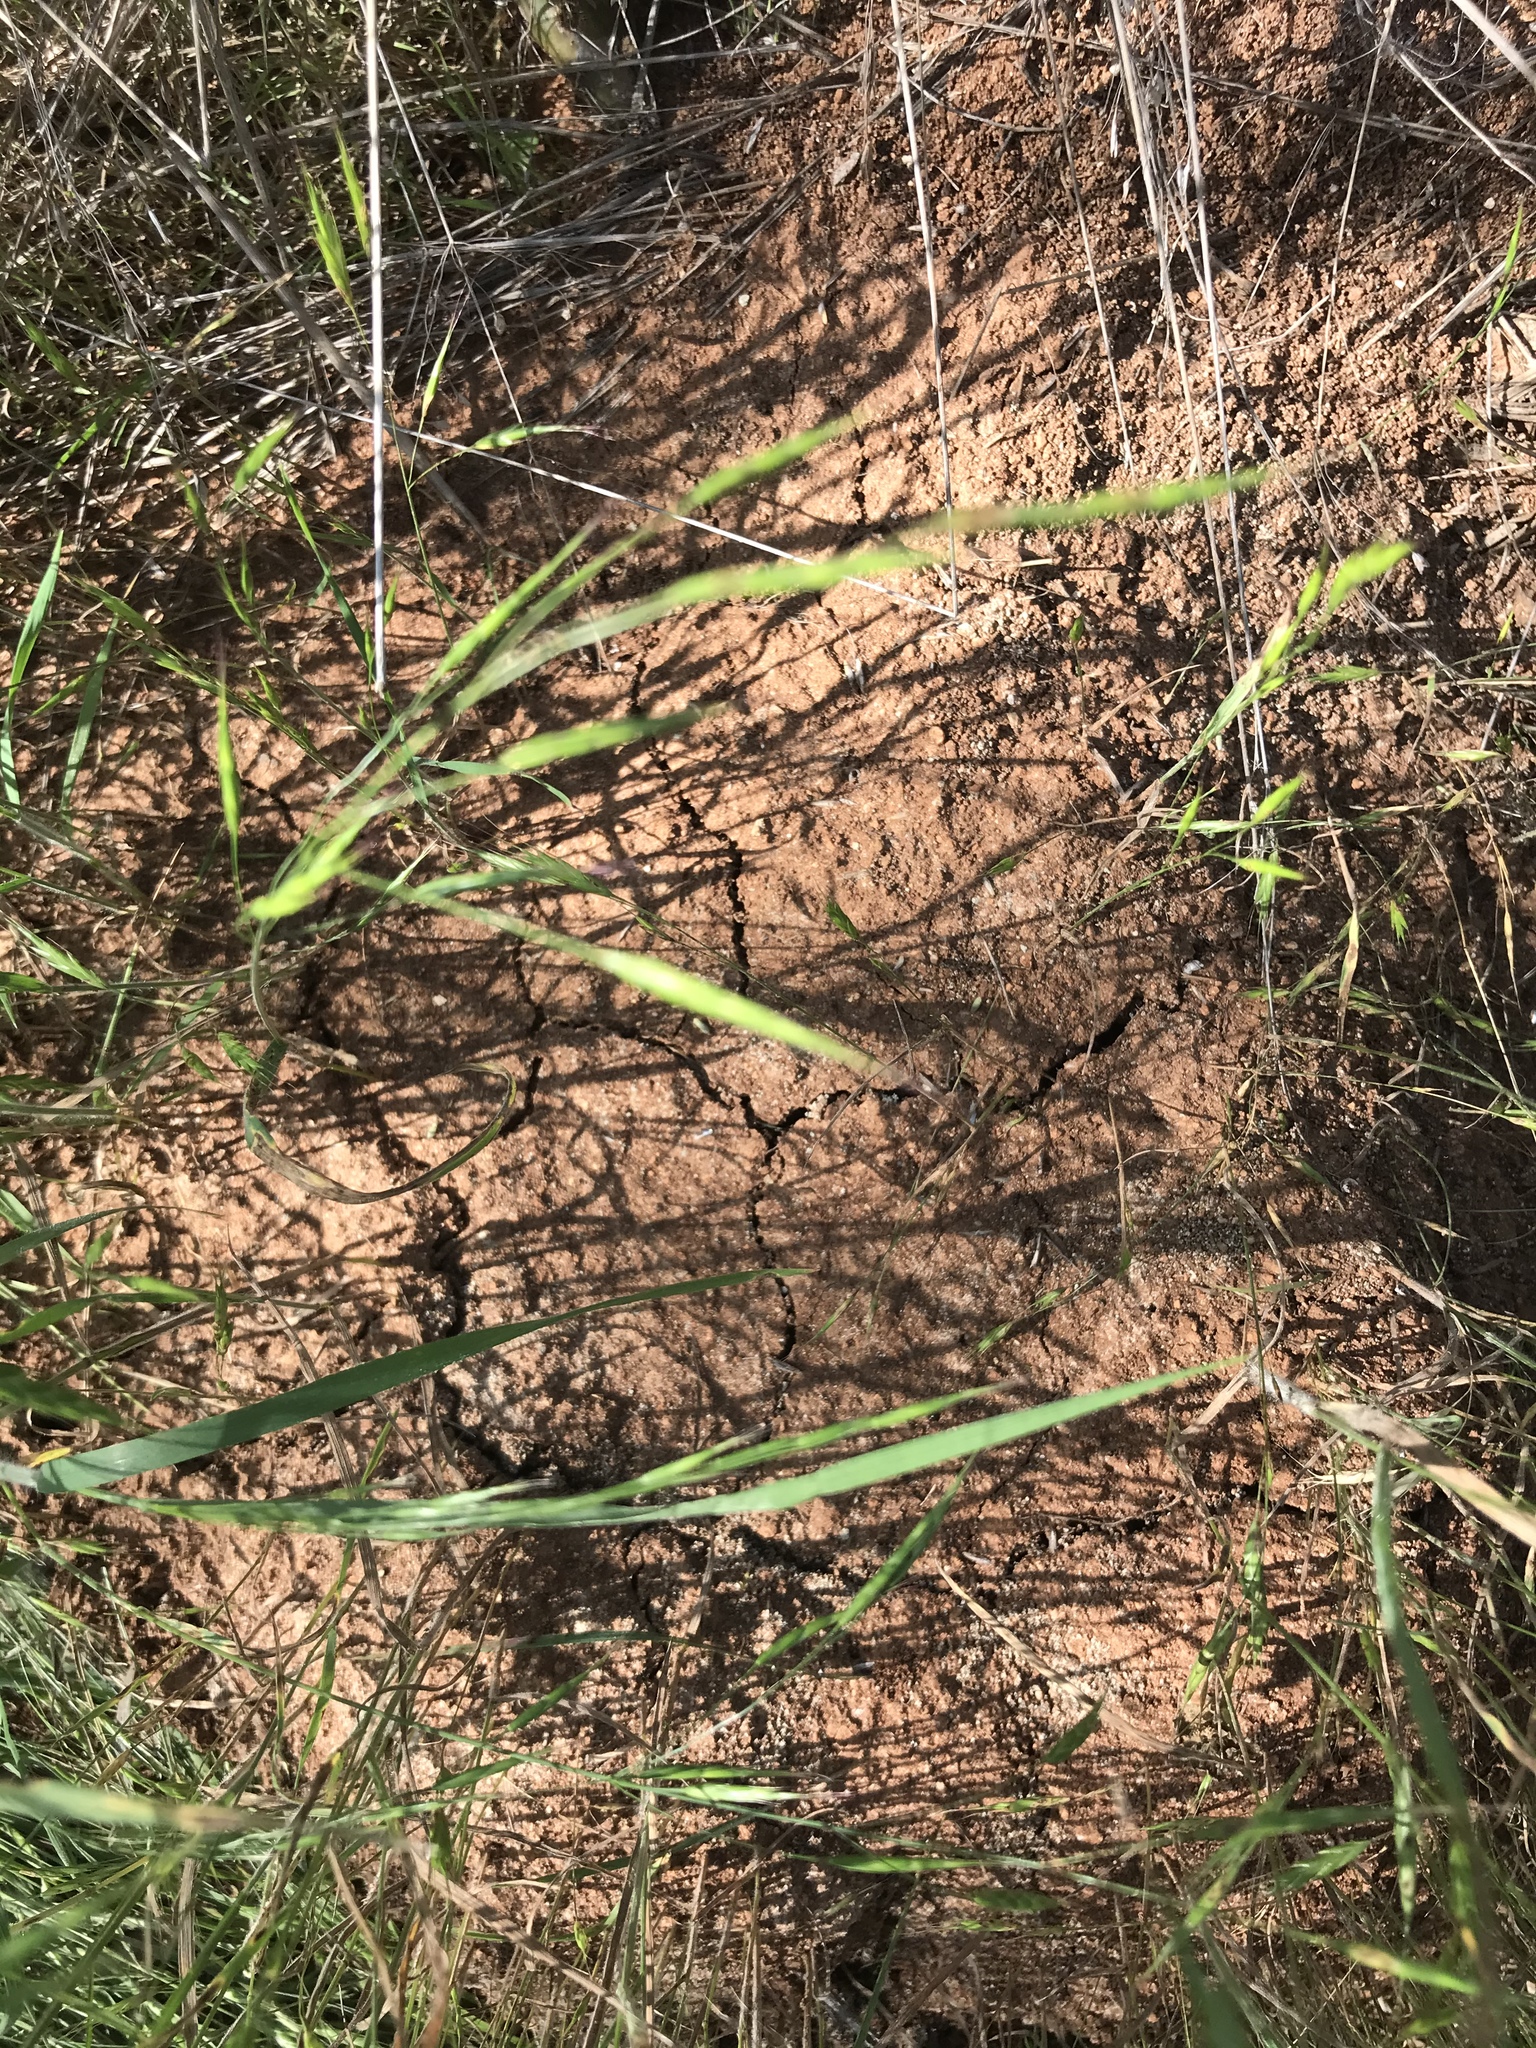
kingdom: Animalia
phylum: Arthropoda
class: Insecta
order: Hymenoptera
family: Formicidae
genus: Solenopsis
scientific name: Solenopsis invicta
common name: Red imported fire ant
